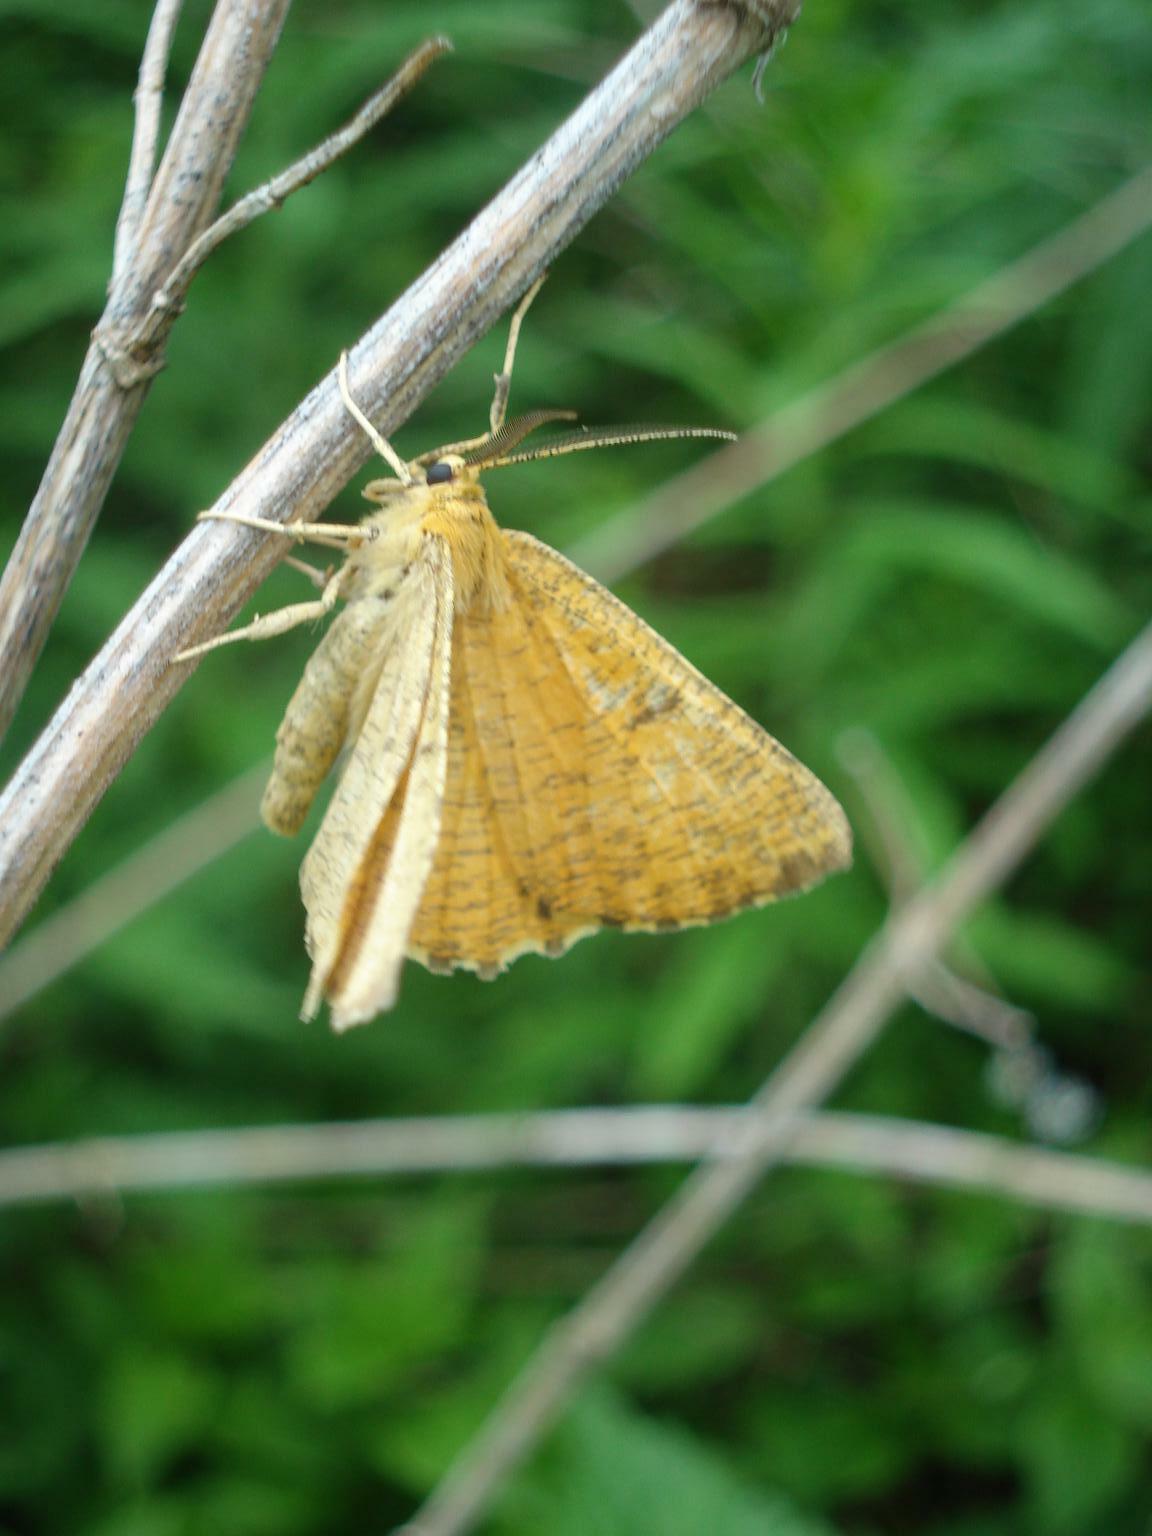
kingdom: Animalia
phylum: Arthropoda
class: Insecta
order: Lepidoptera
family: Geometridae
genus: Angerona
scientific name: Angerona prunaria
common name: Orange moth
